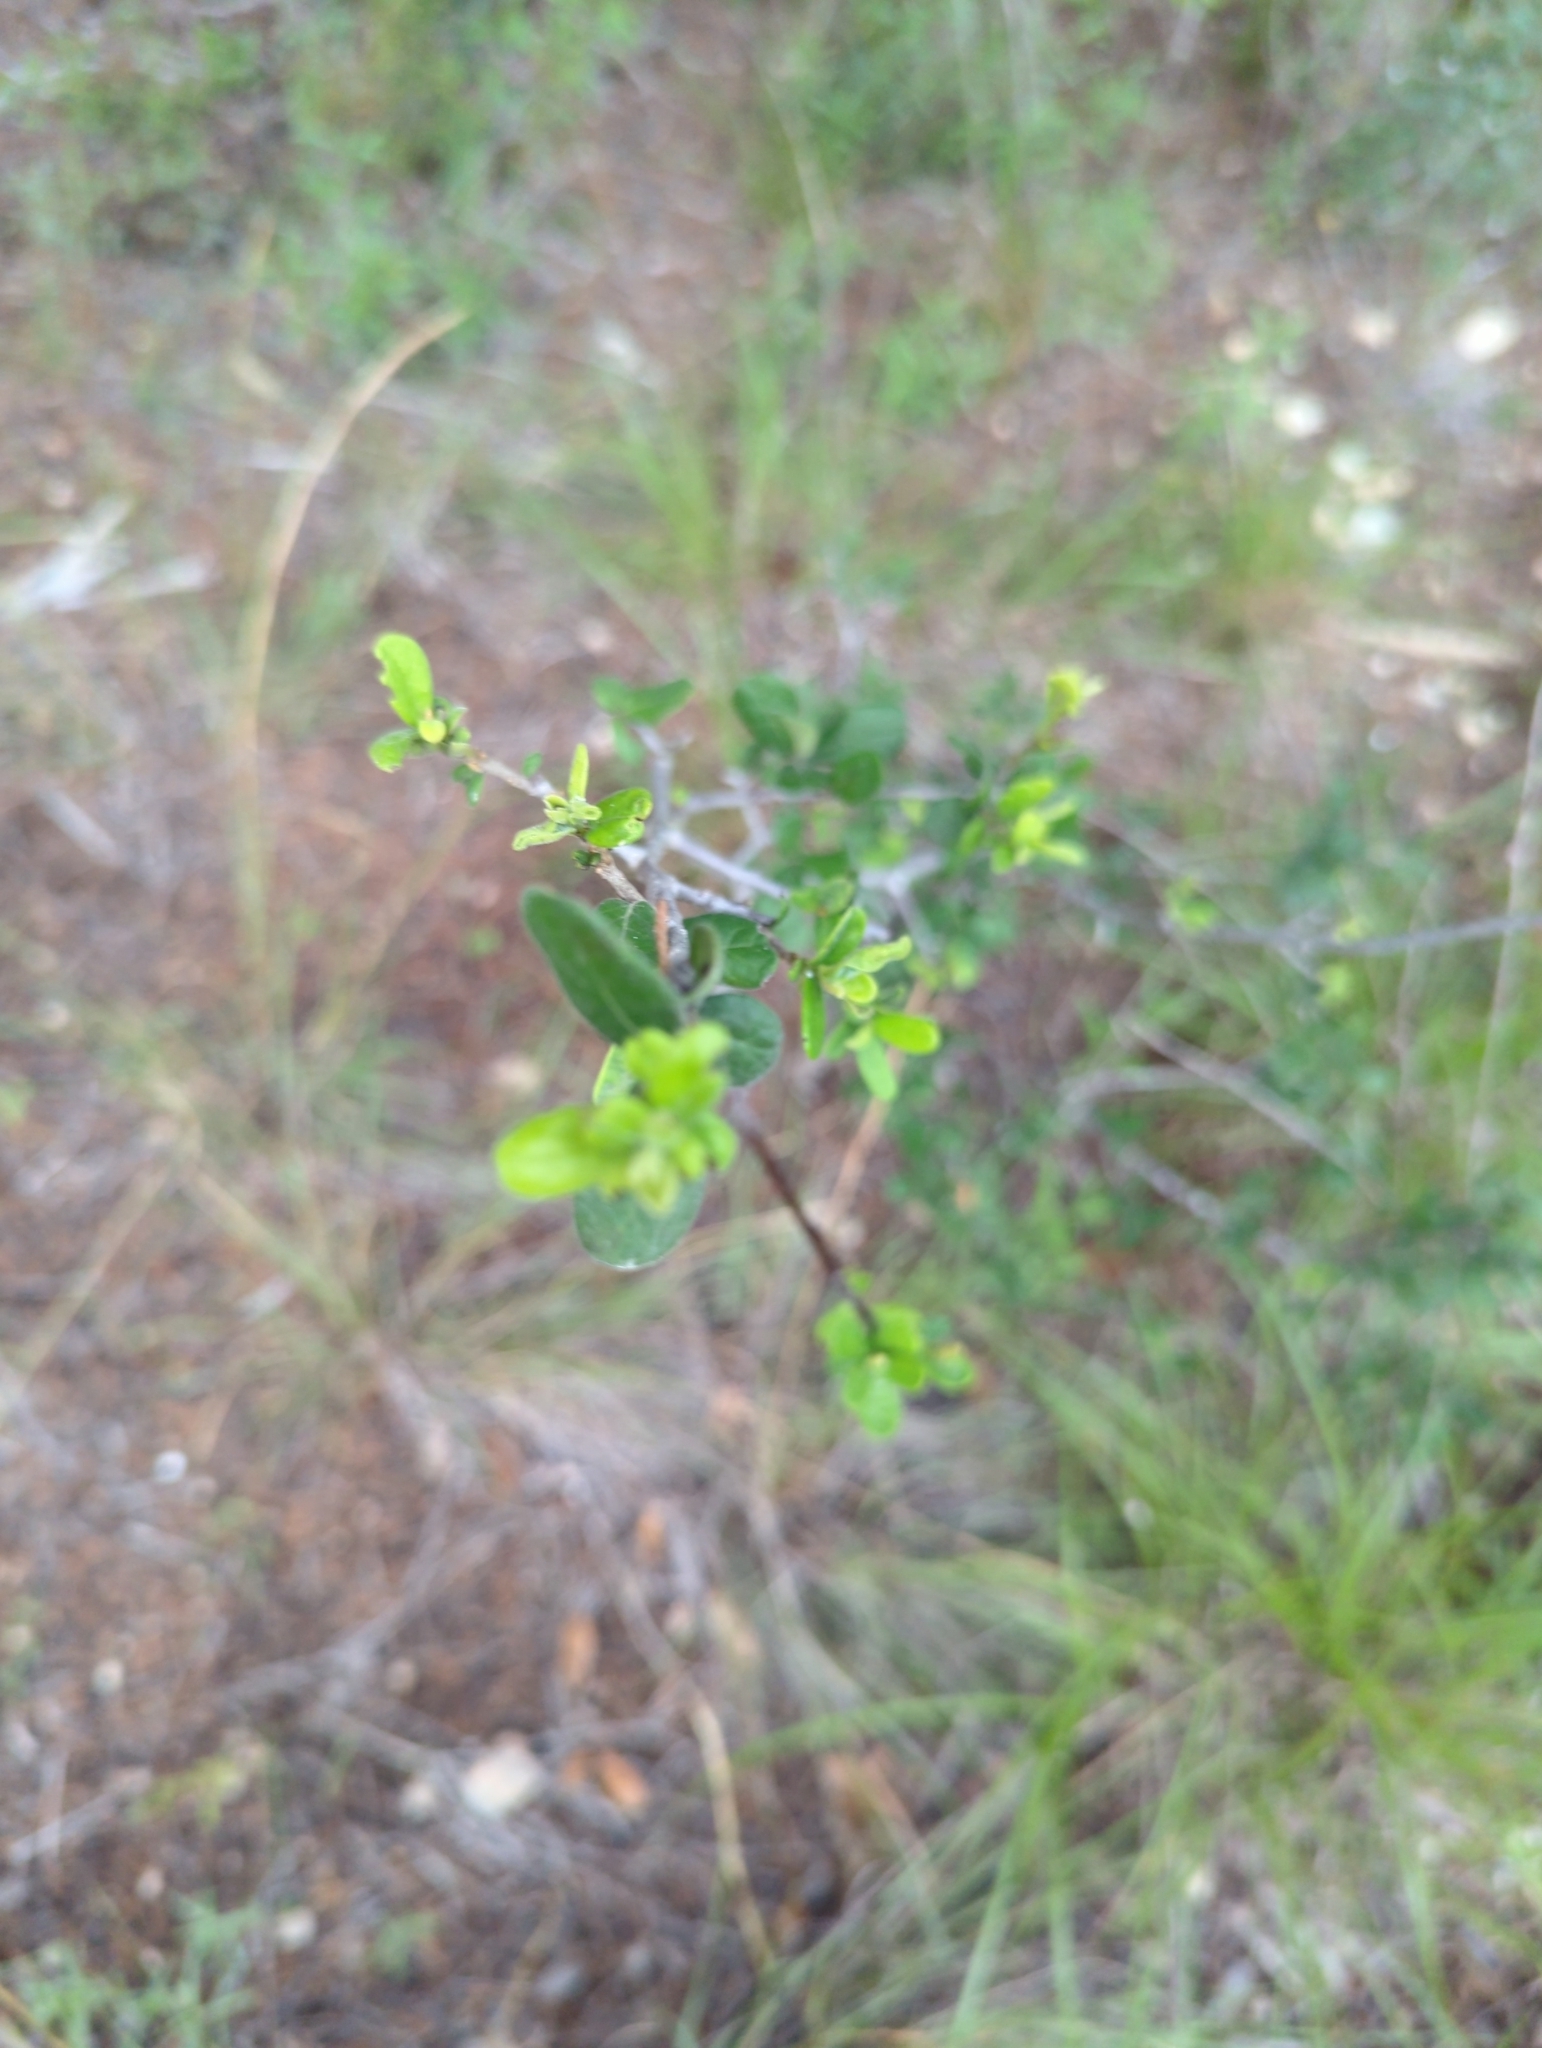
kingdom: Plantae
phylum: Tracheophyta
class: Magnoliopsida
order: Ericales
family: Ebenaceae
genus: Diospyros
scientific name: Diospyros texana
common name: Texas persimmon
